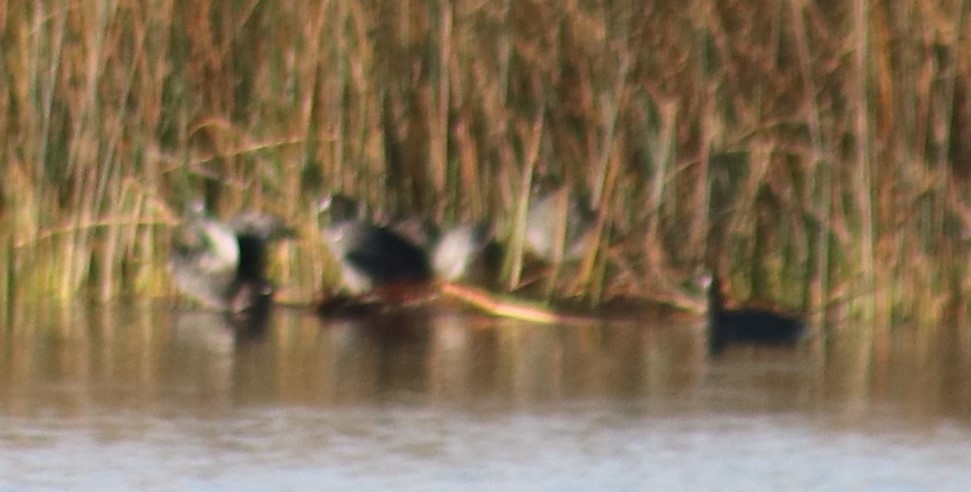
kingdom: Animalia
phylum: Chordata
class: Aves
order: Gruiformes
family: Rallidae
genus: Fulica
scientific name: Fulica americana
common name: American coot
